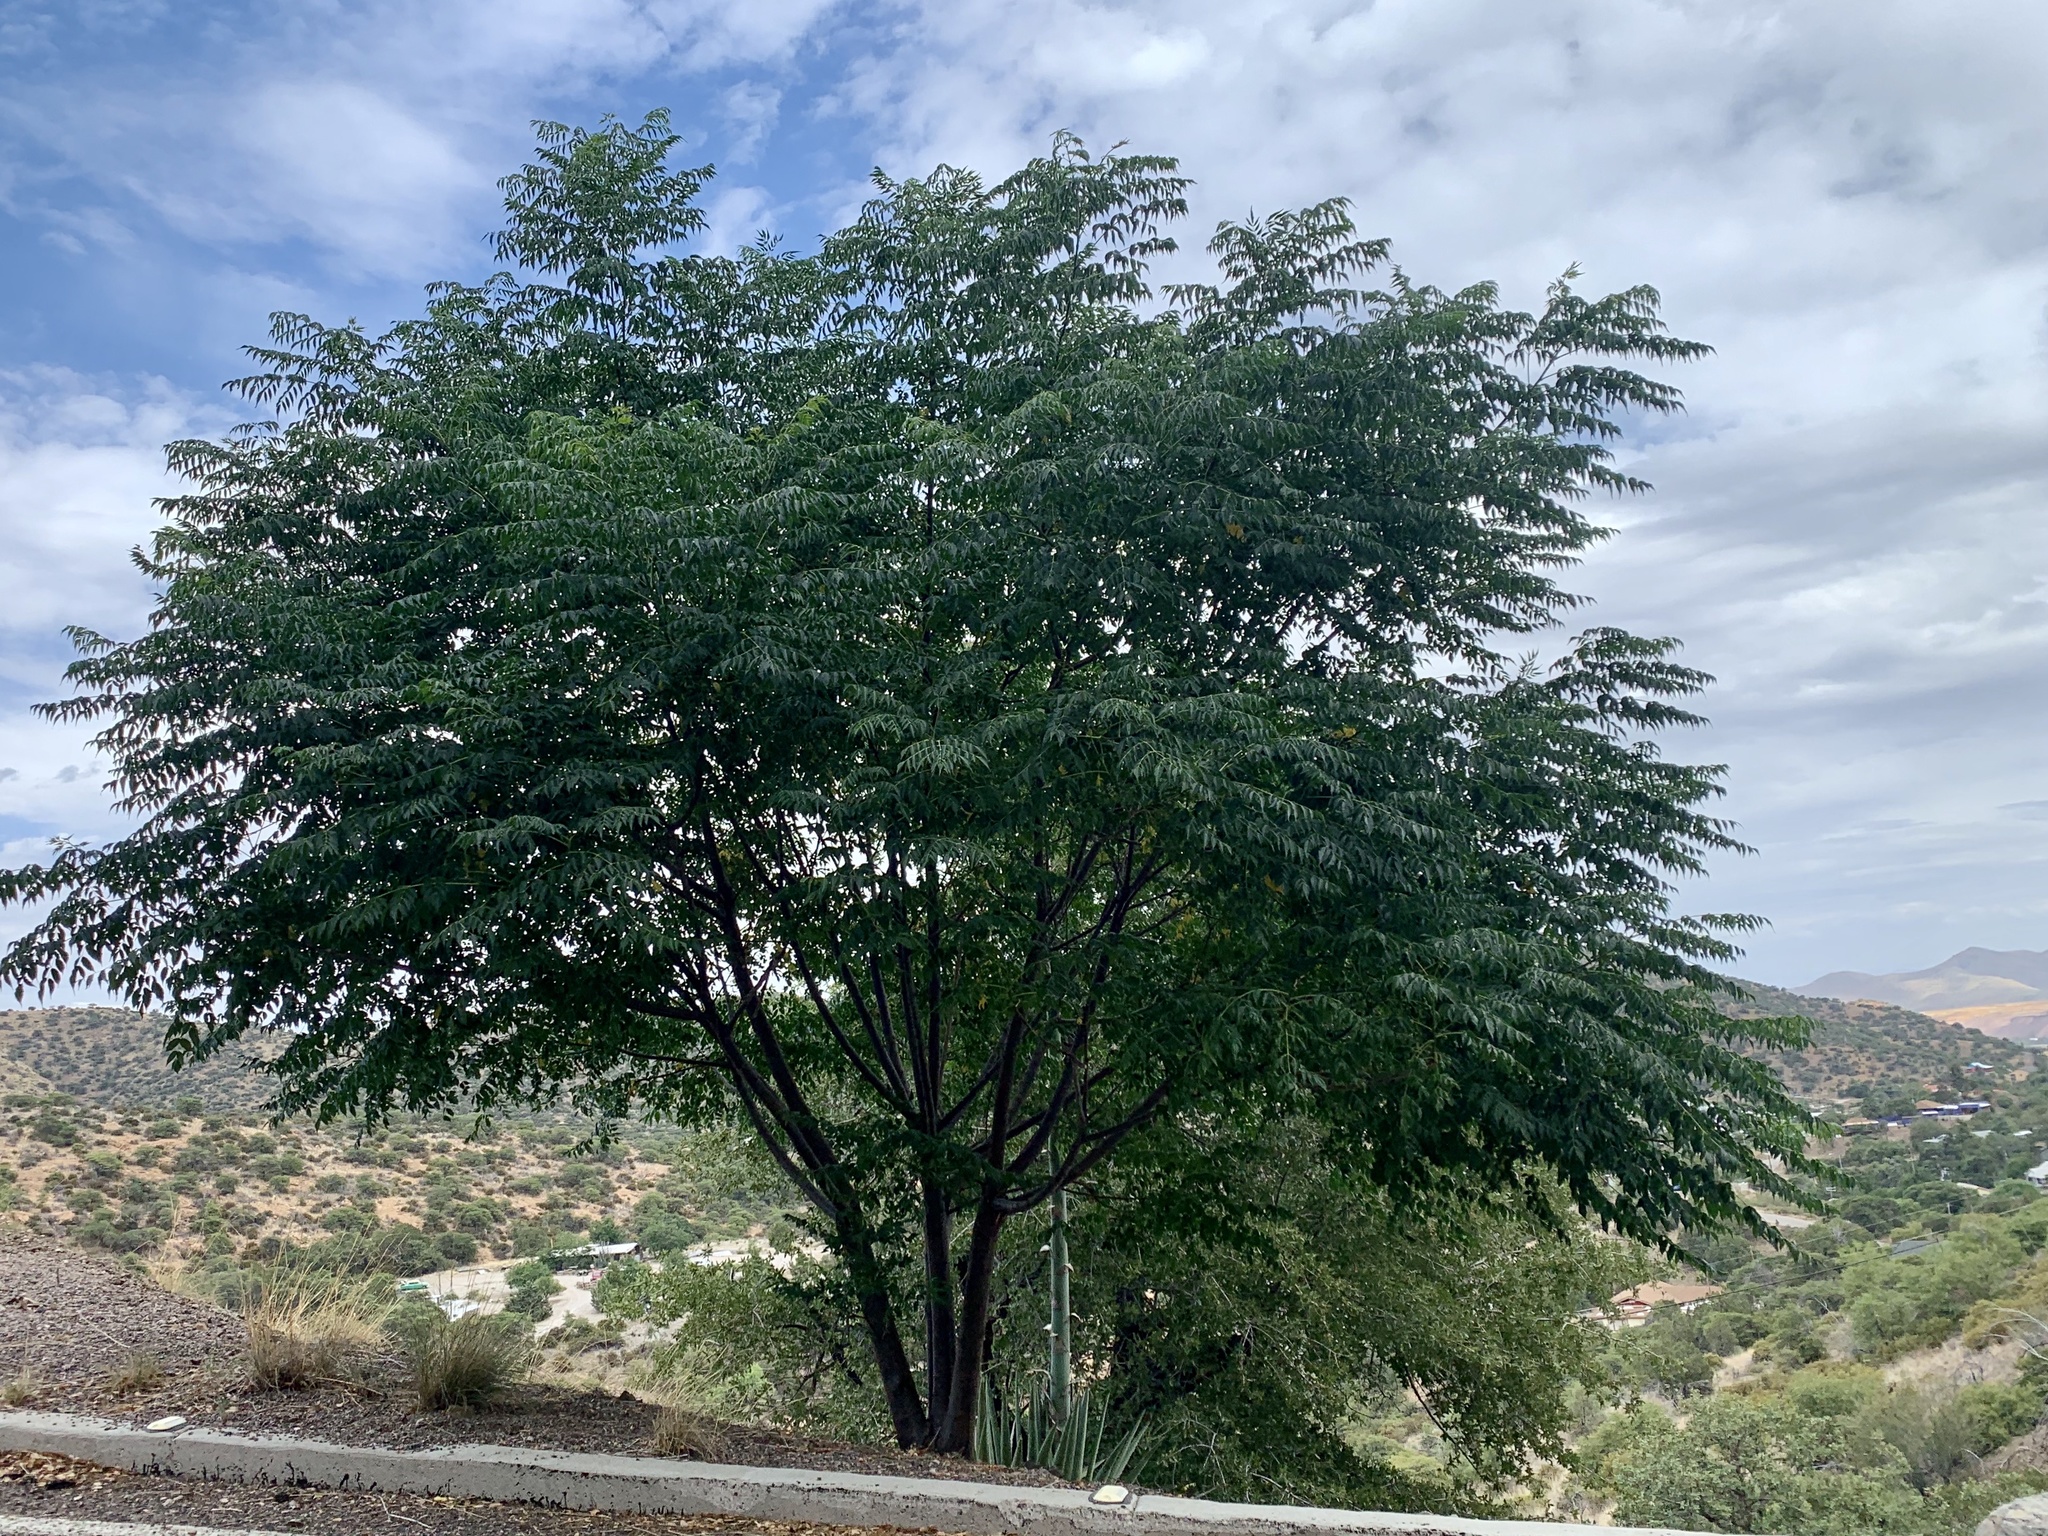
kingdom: Plantae
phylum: Tracheophyta
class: Magnoliopsida
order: Fagales
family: Juglandaceae
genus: Juglans
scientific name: Juglans major
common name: Arizona walnut
